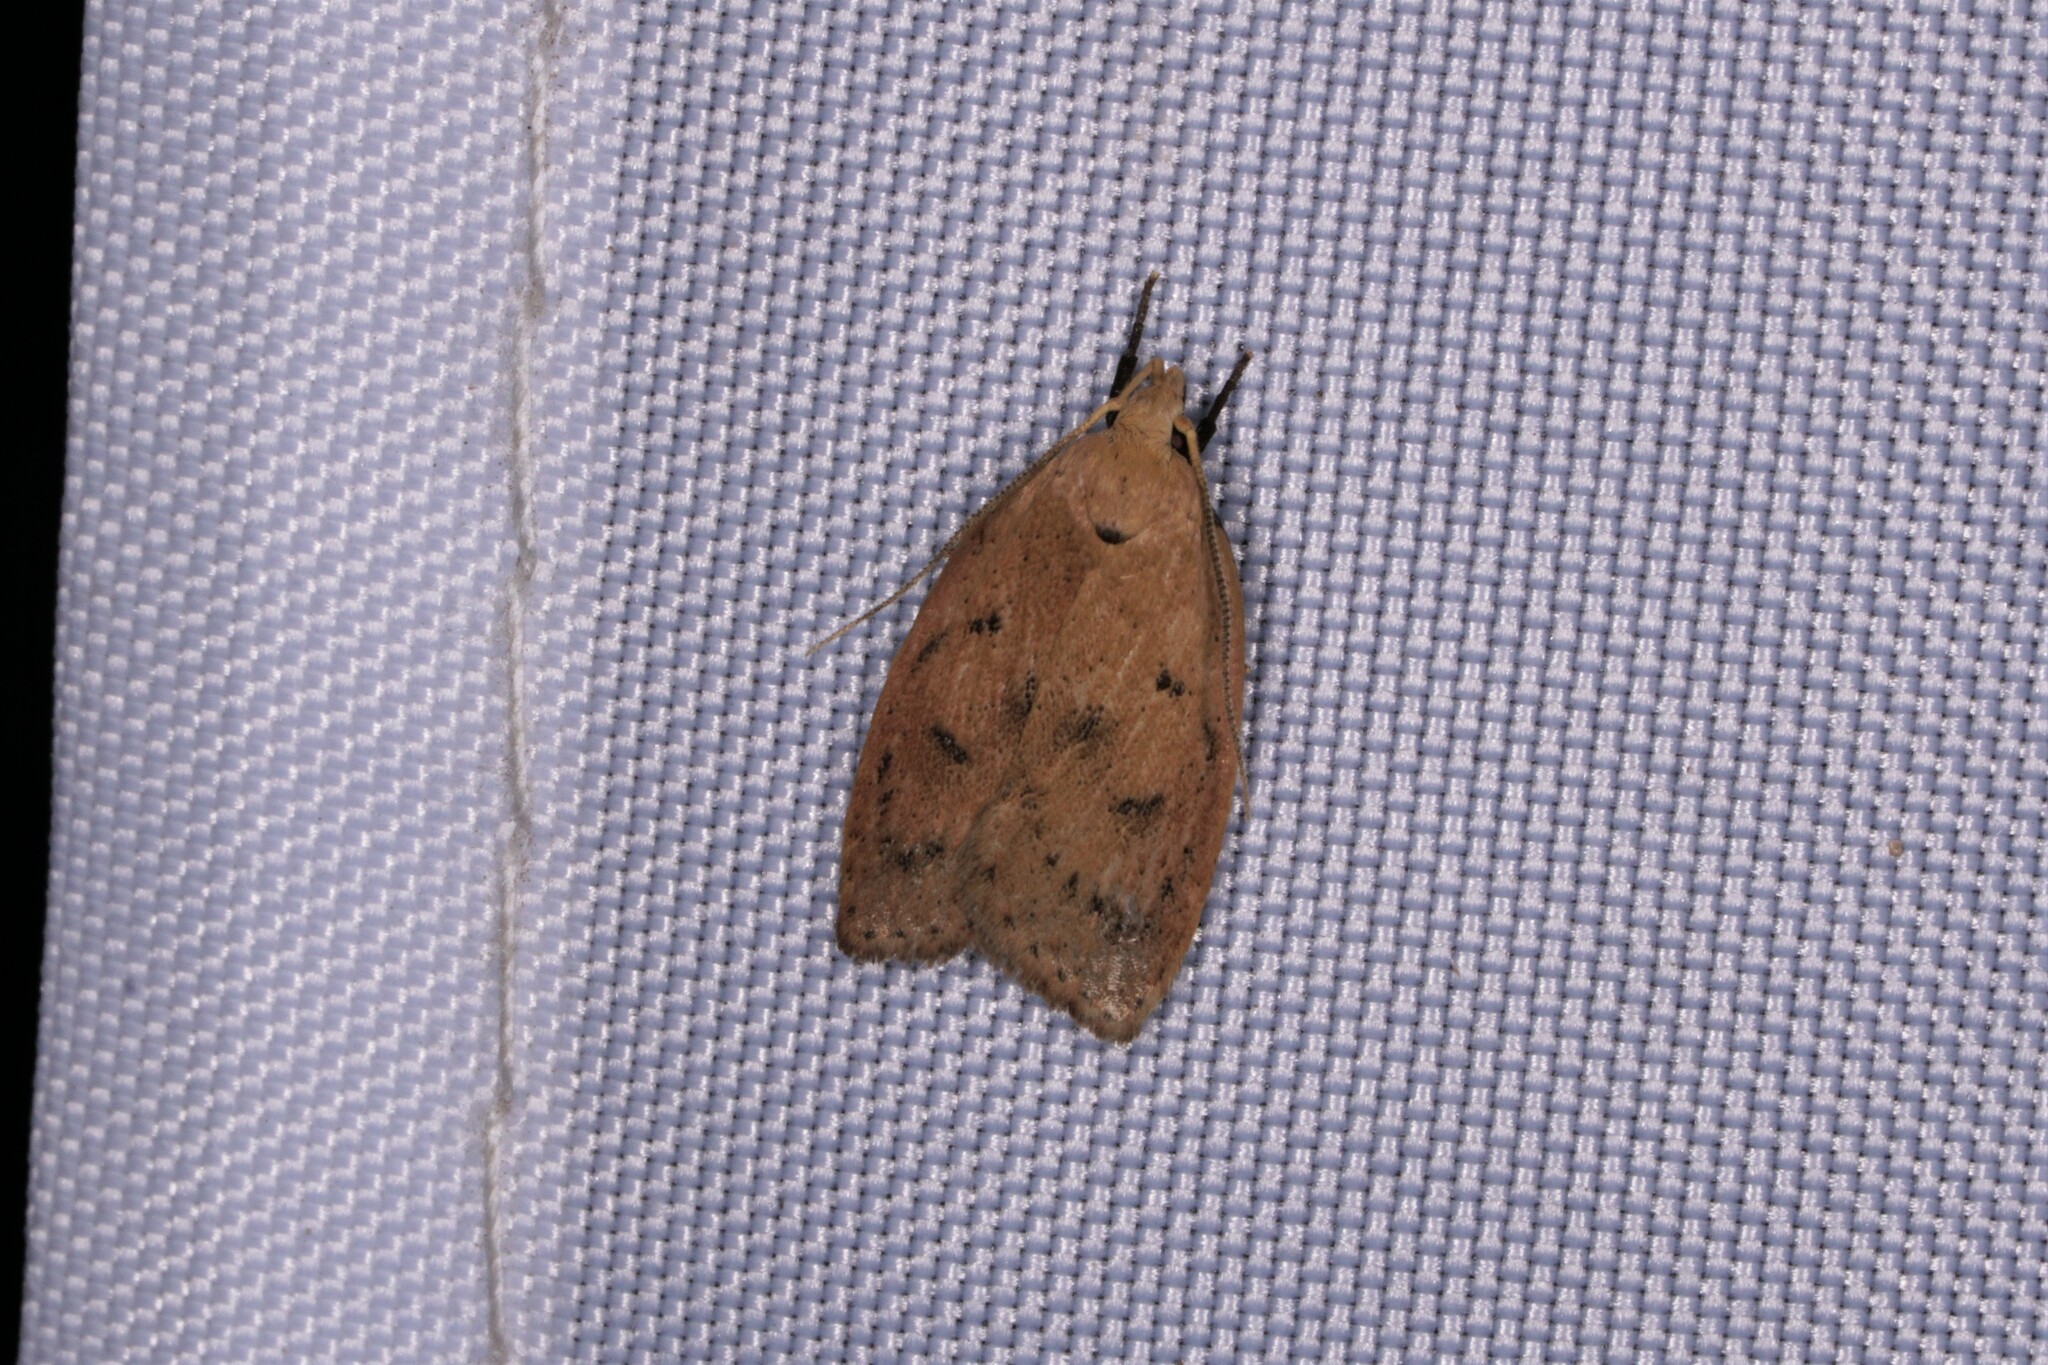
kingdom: Animalia
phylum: Arthropoda
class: Insecta
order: Lepidoptera
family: Peleopodidae
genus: Machimia
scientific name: Machimia tentoriferella
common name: Gold-striped leaftier moth
